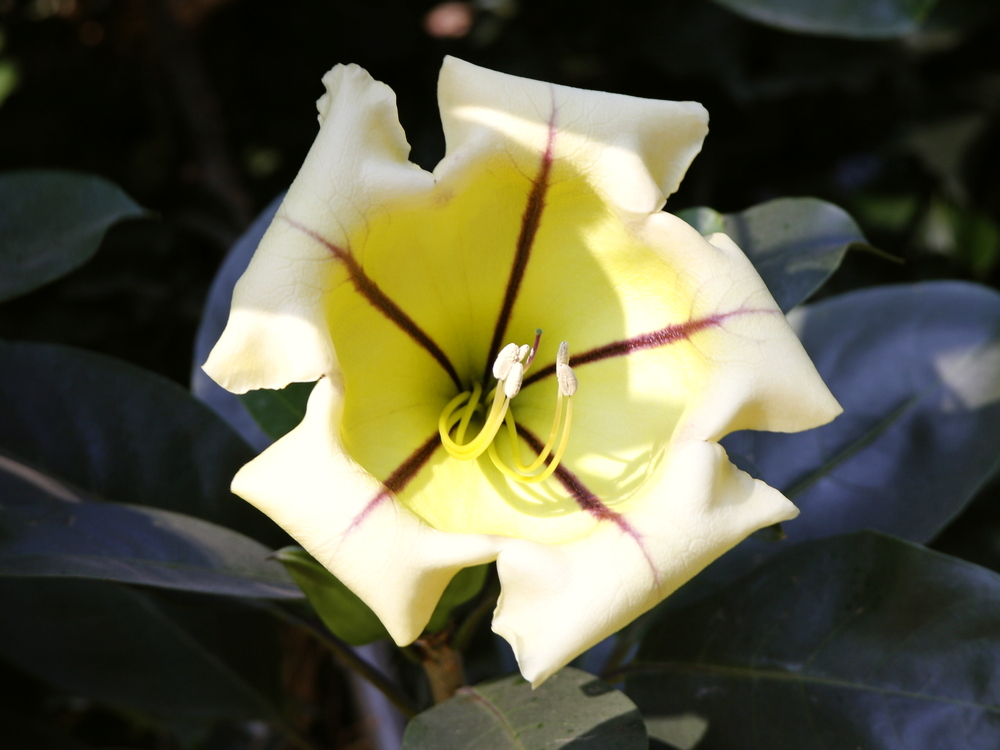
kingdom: Plantae
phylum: Tracheophyta
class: Magnoliopsida
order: Solanales
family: Solanaceae
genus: Solandra
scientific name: Solandra maxima
